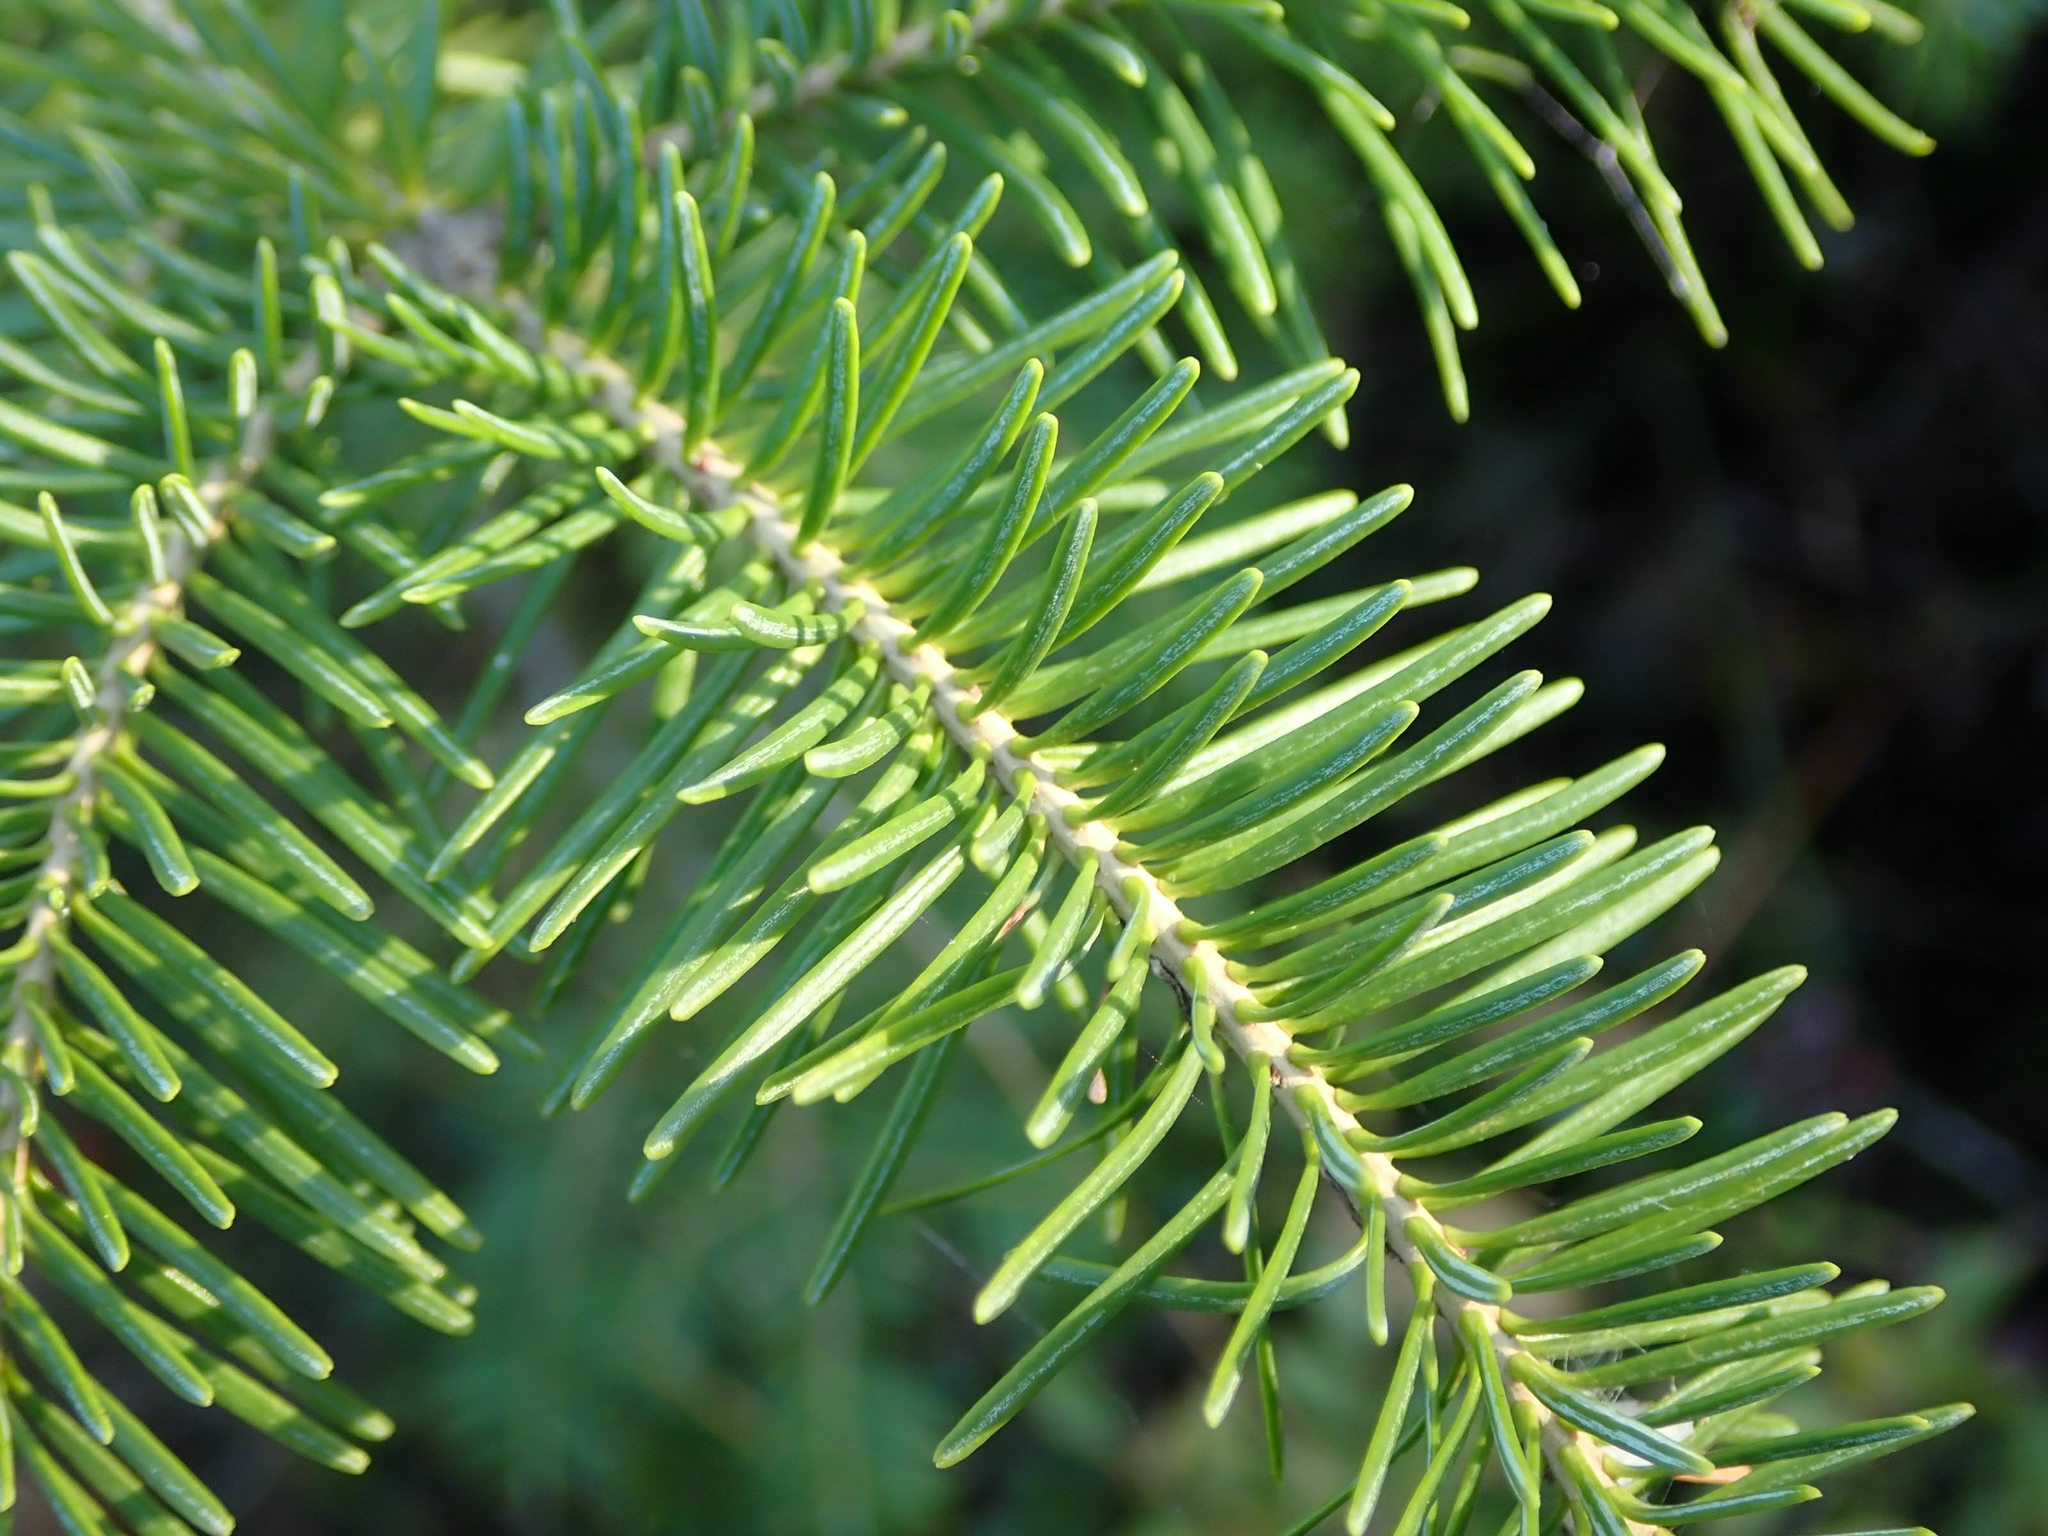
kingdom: Plantae
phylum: Tracheophyta
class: Pinopsida
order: Pinales
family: Pinaceae
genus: Picea
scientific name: Picea glauca
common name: White spruce
